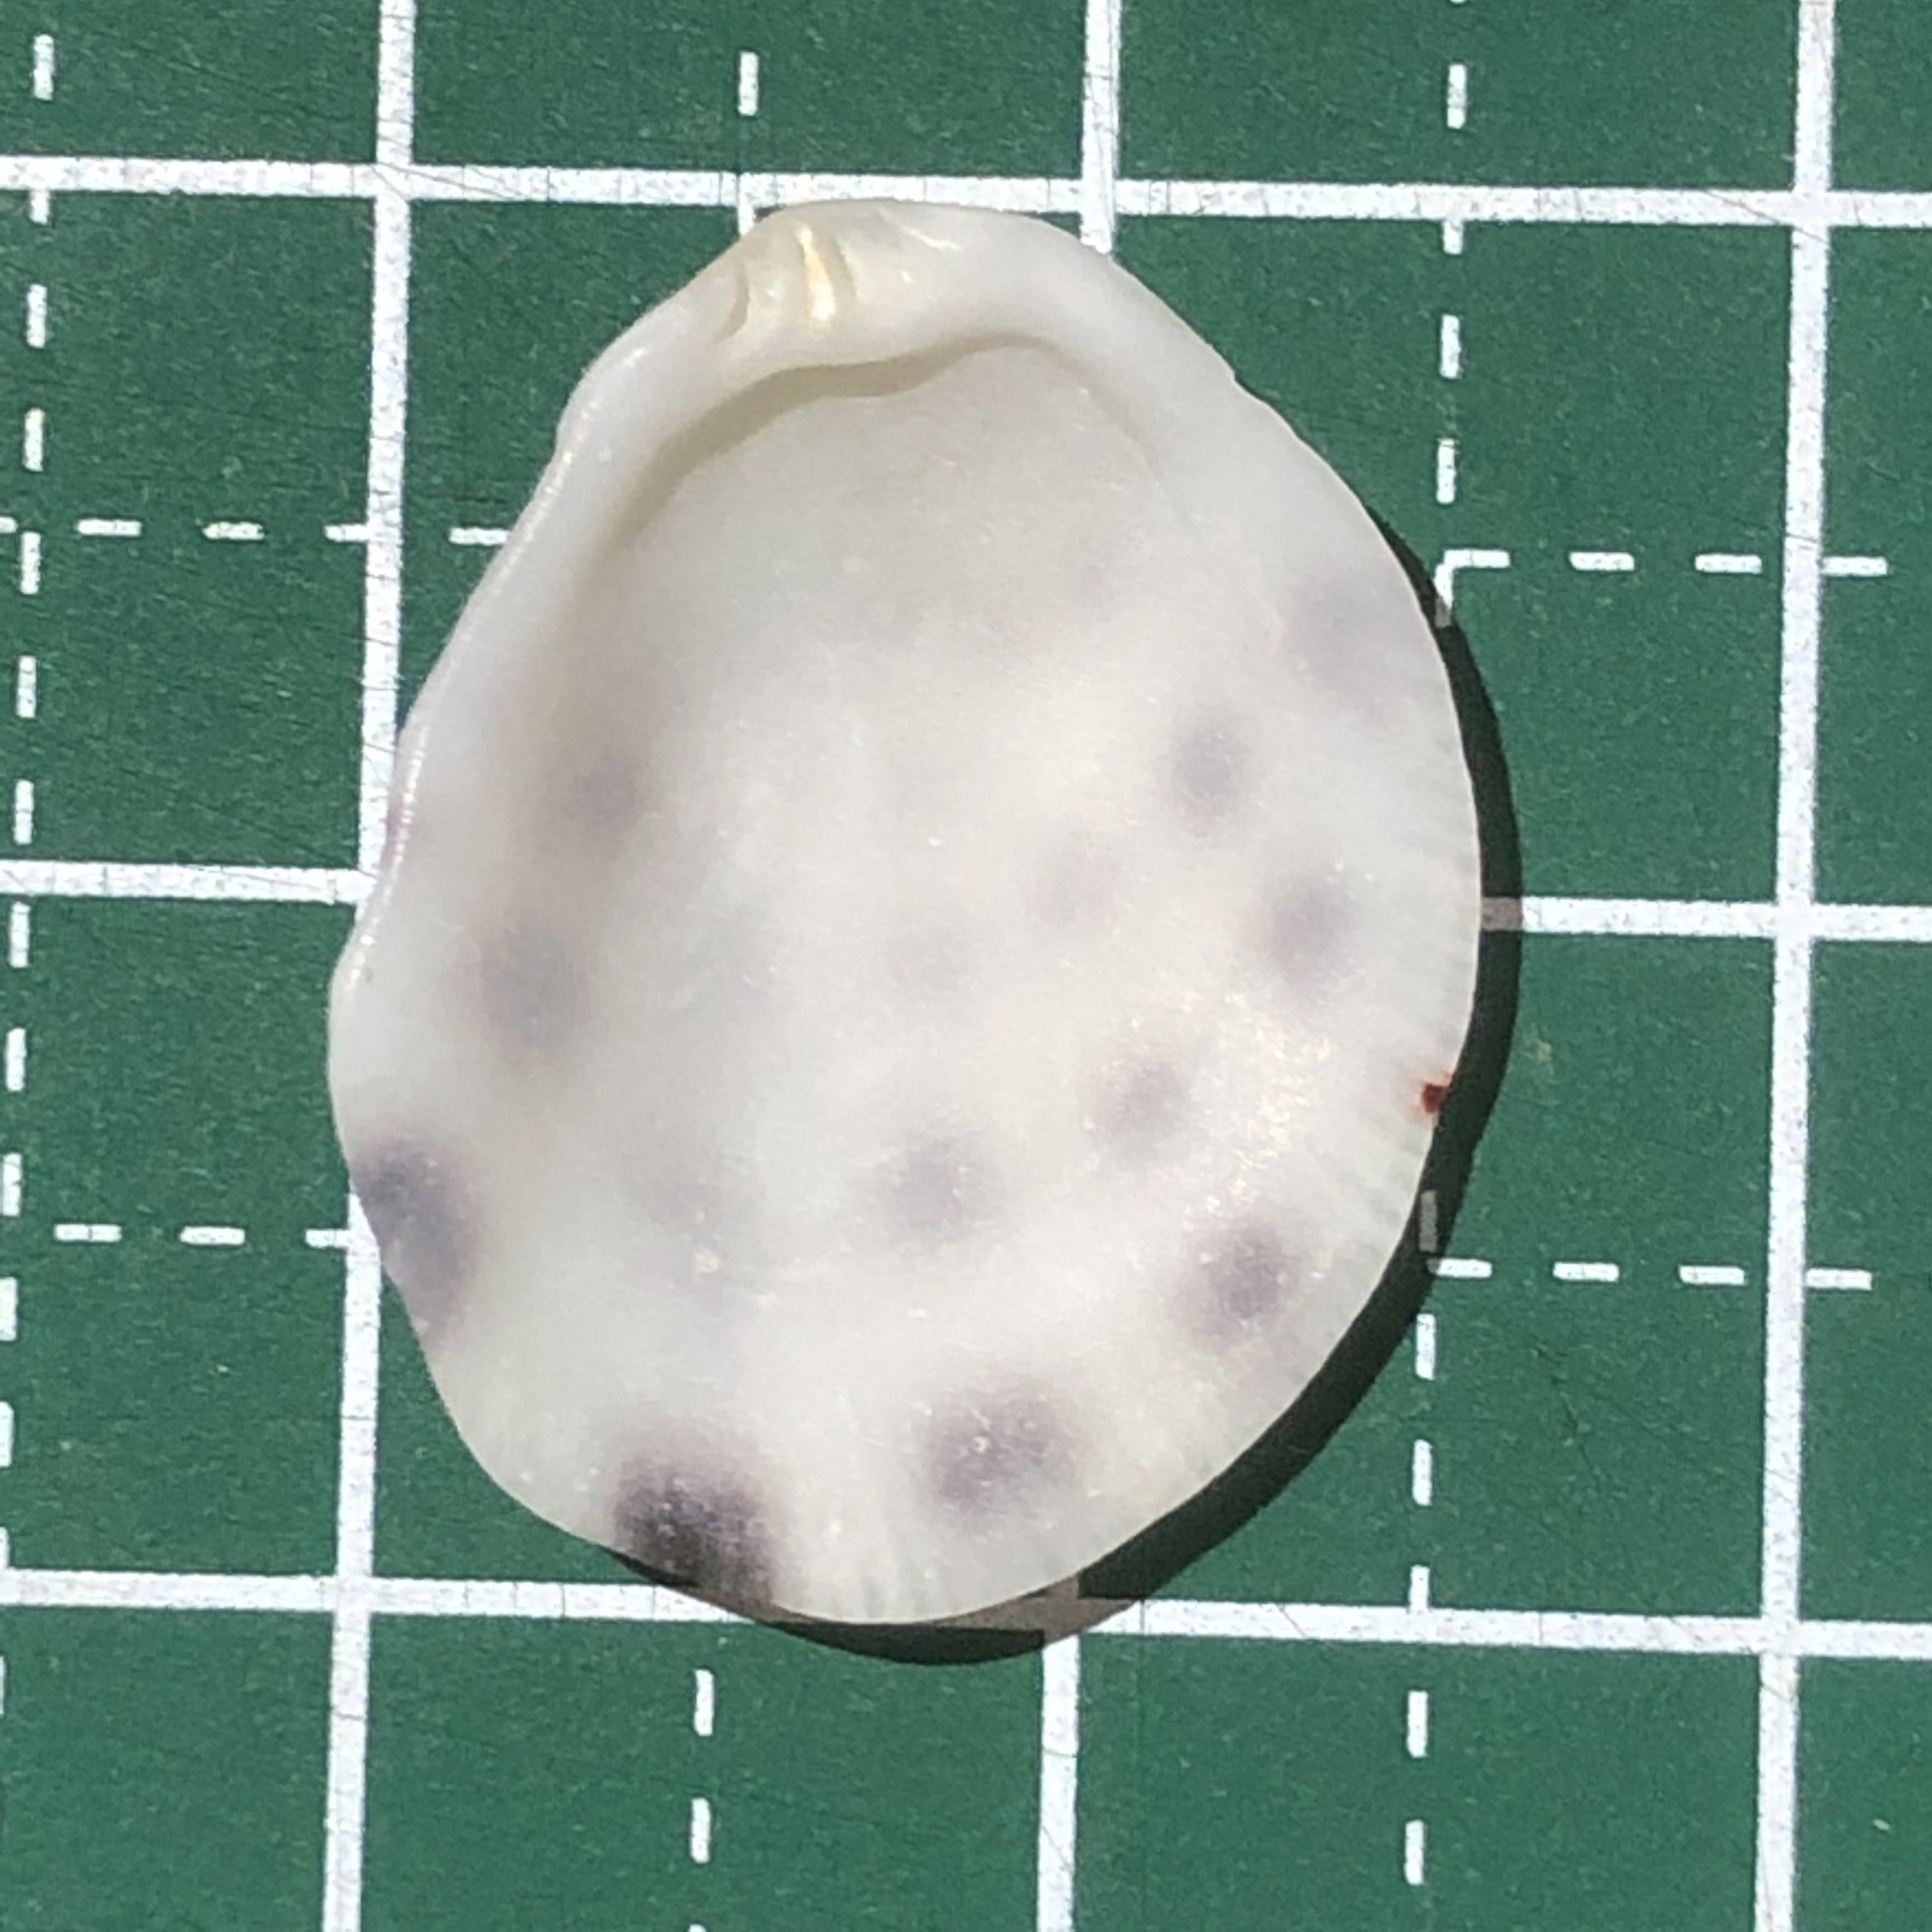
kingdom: Animalia
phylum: Mollusca
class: Bivalvia
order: Pectinida
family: Spondylidae
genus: Spondylus
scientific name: Spondylus squamosus
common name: Scaly thorny oyster
